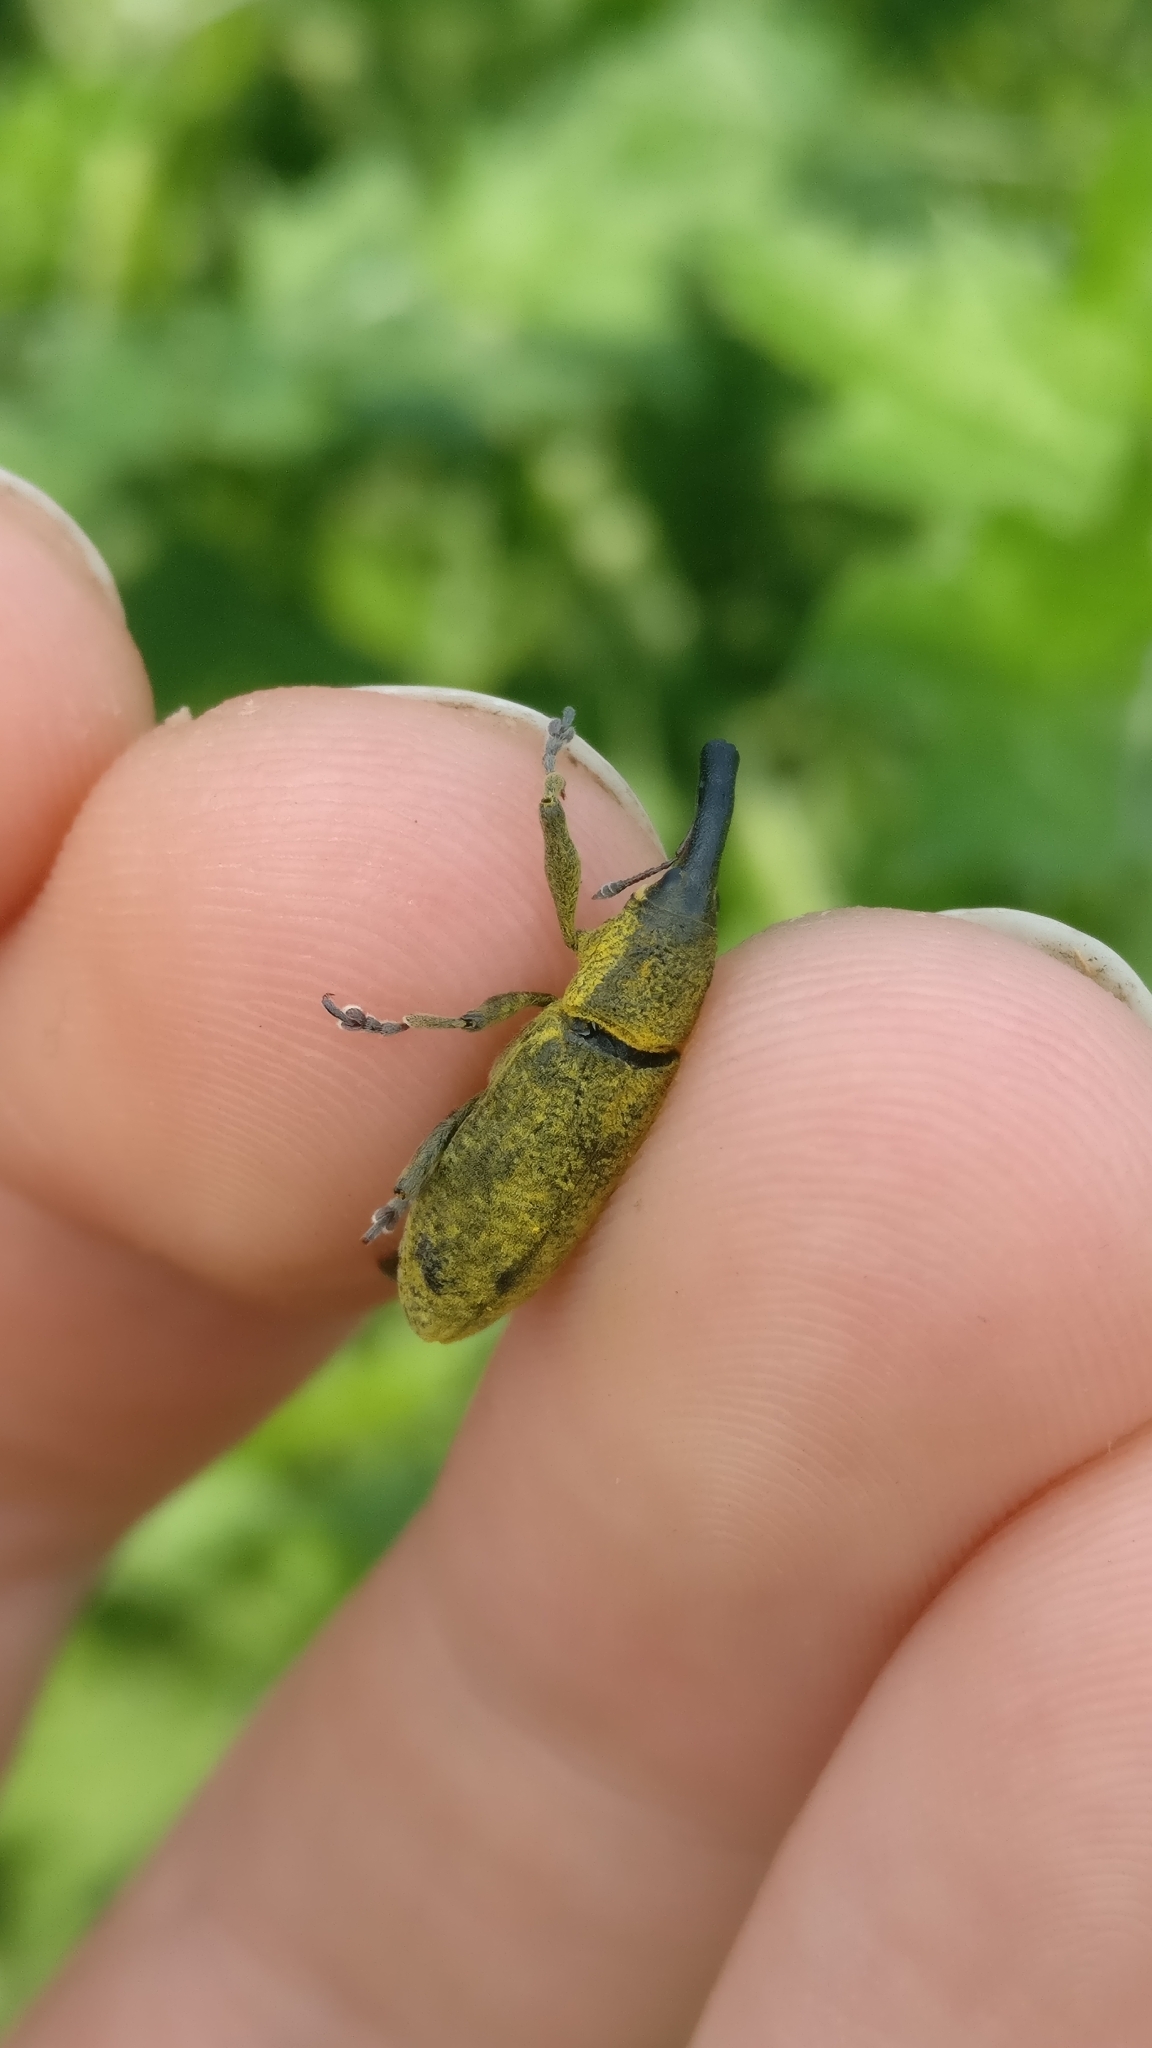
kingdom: Animalia
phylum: Arthropoda
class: Insecta
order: Coleoptera
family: Curculionidae
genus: Lixus
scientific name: Lixus pulverulentus
